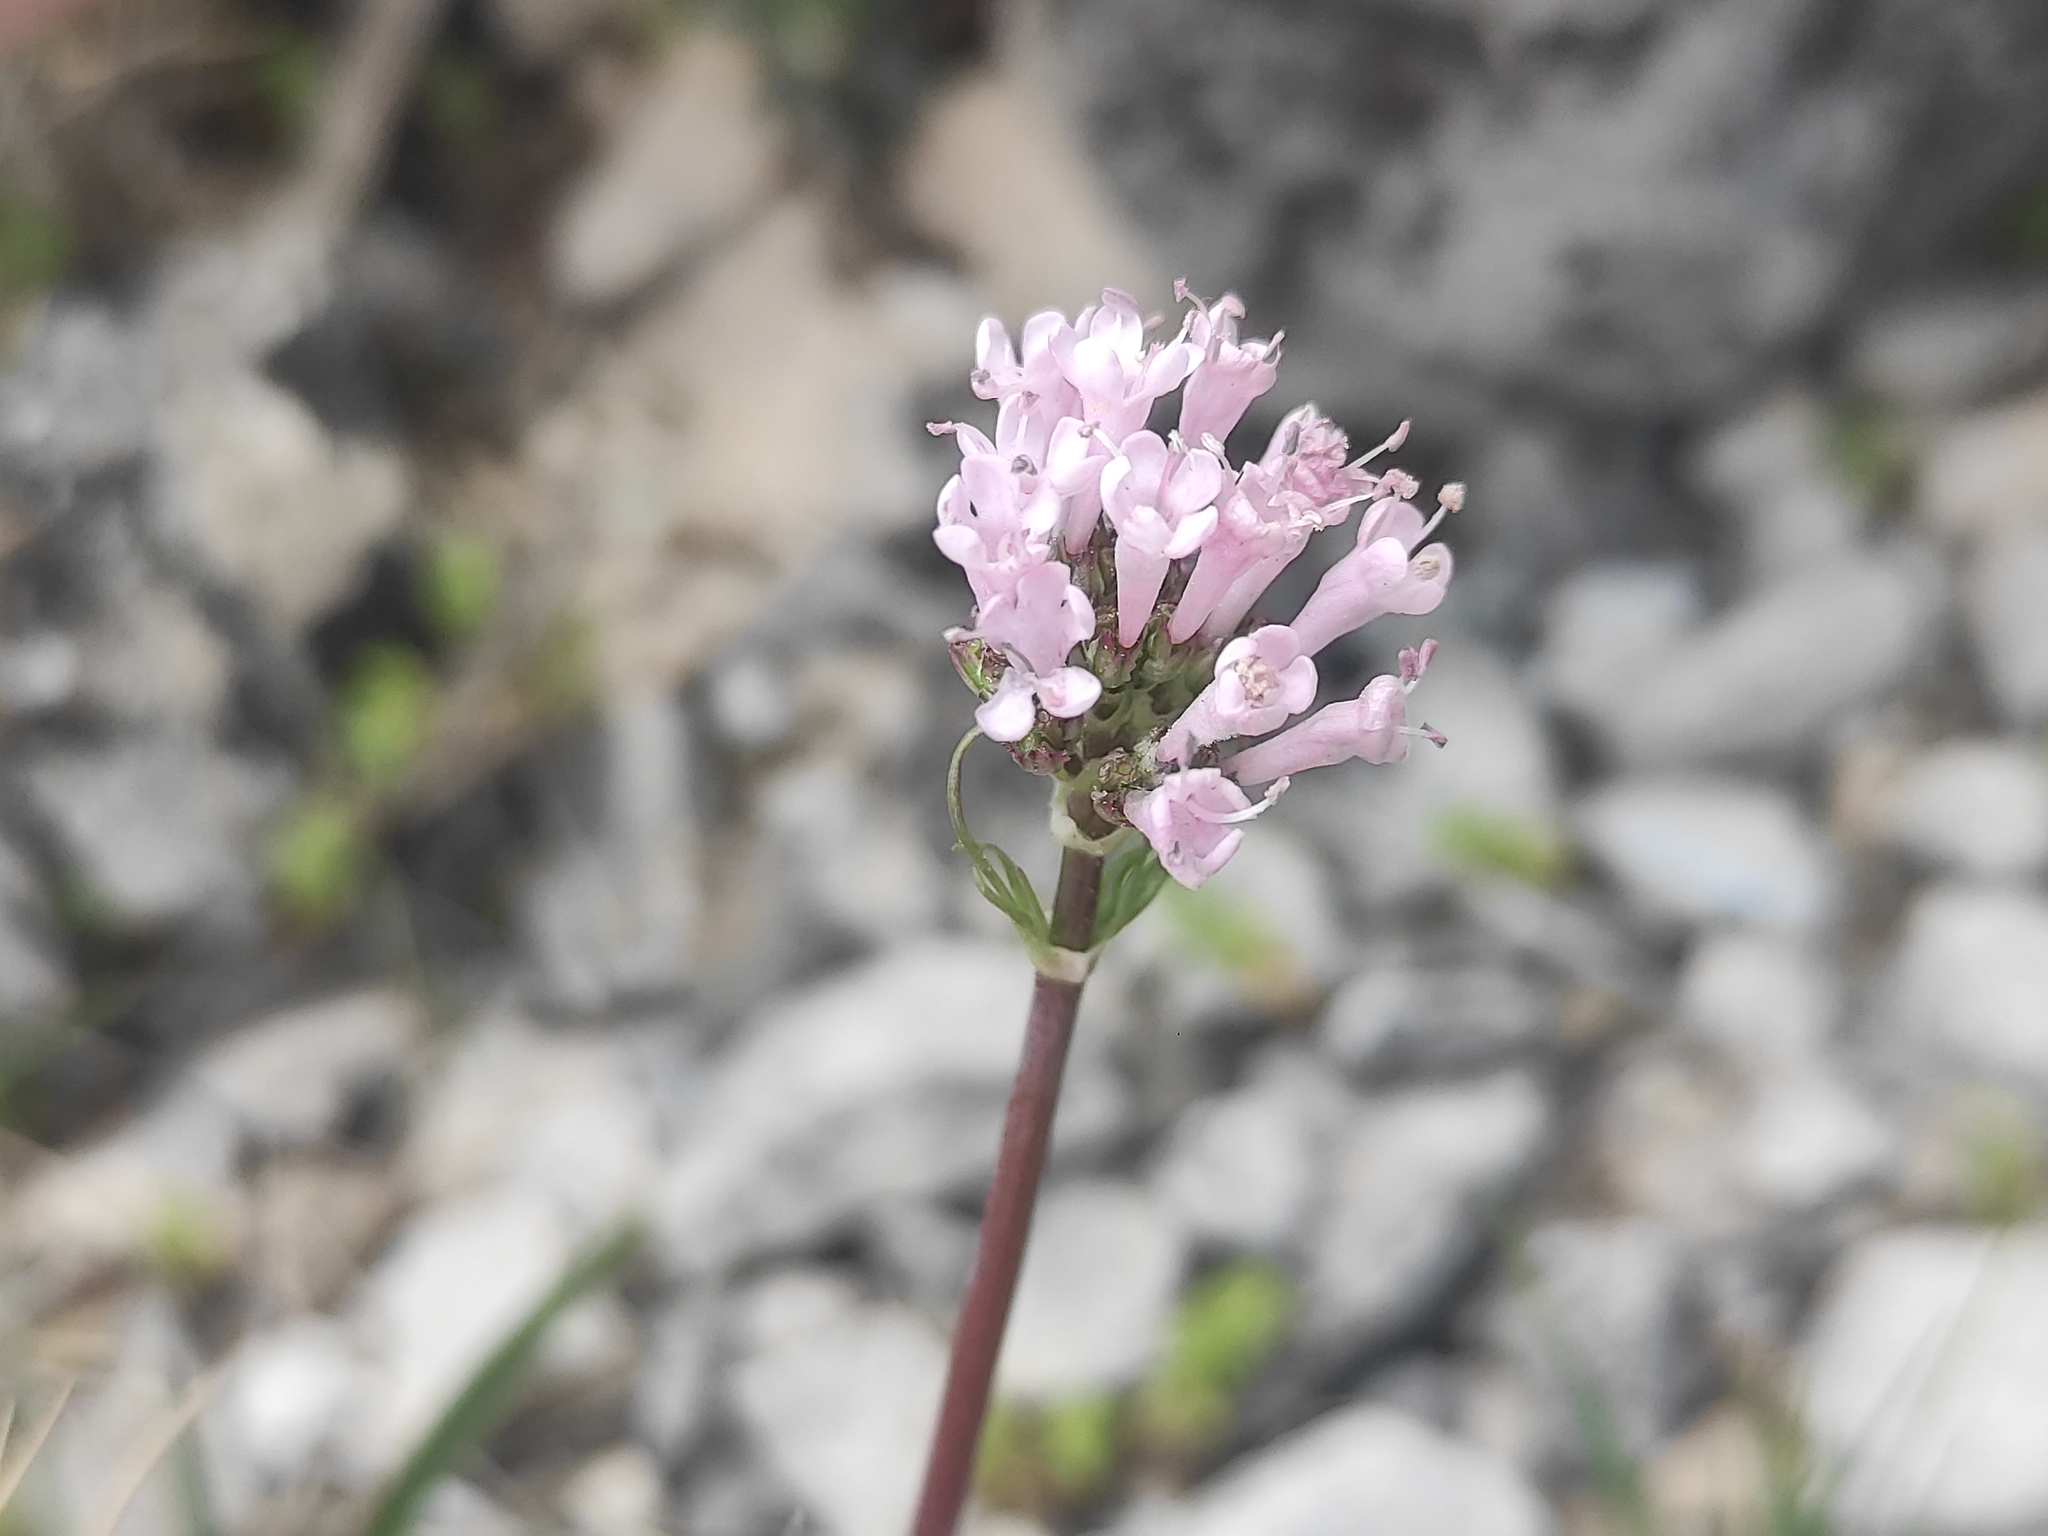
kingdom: Plantae
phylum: Tracheophyta
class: Magnoliopsida
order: Dipsacales
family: Caprifoliaceae
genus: Valeriana
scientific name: Valeriana tuberosa
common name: Tuberous valerian
